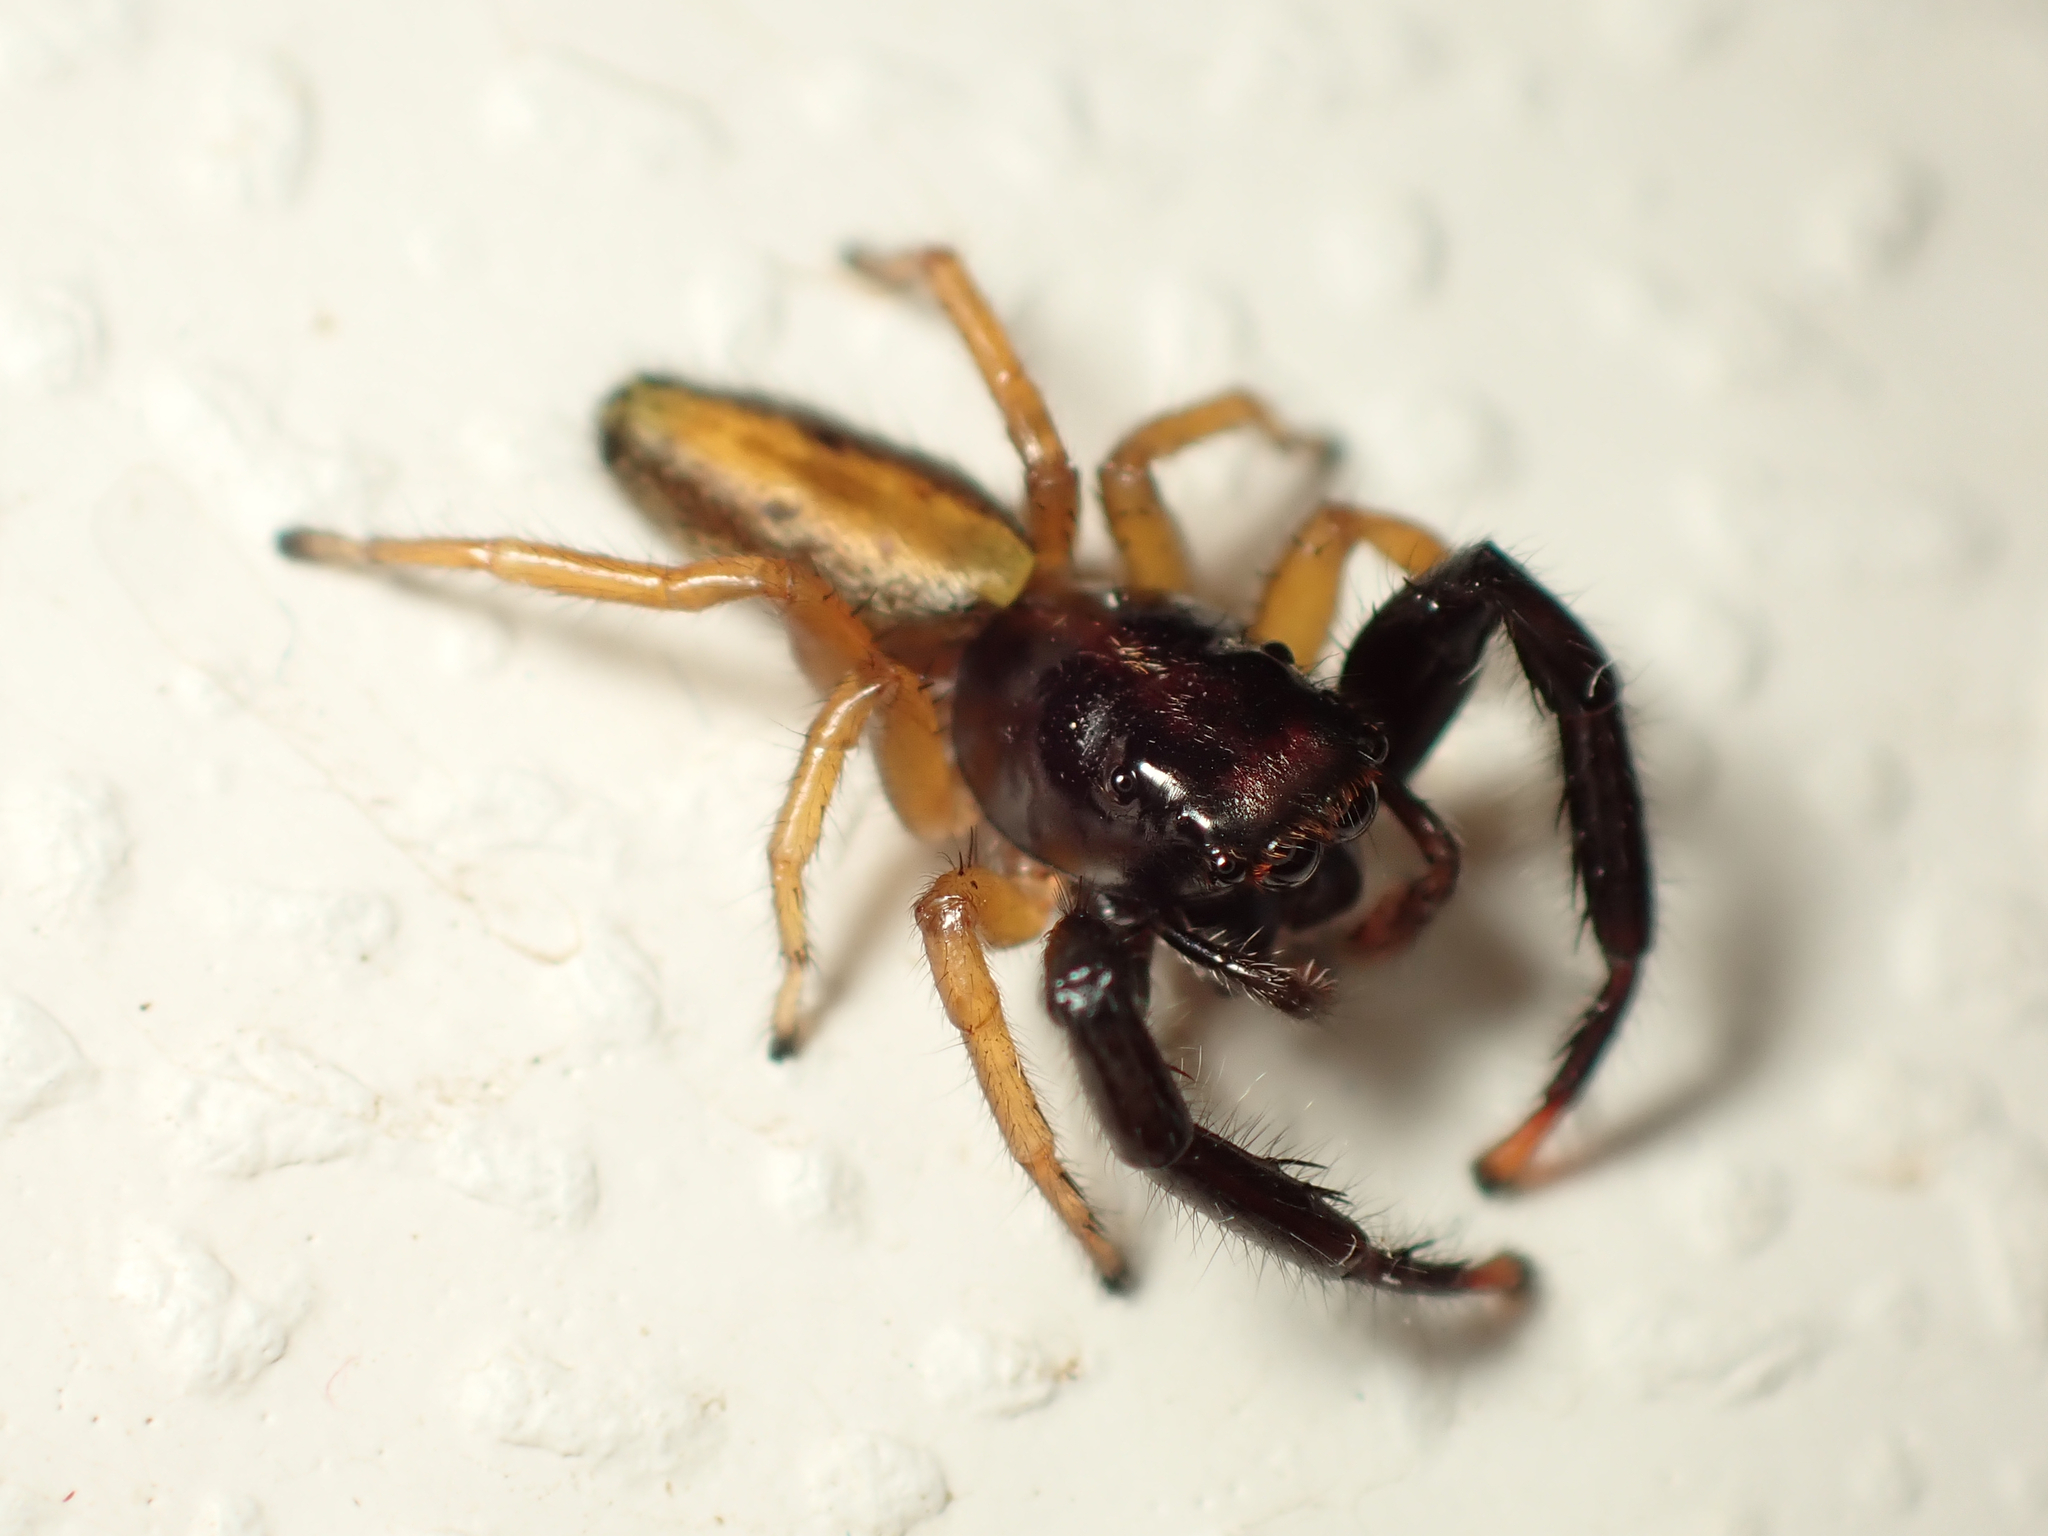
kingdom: Animalia
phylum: Arthropoda
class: Arachnida
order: Araneae
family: Salticidae
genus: Trite
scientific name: Trite planiceps
